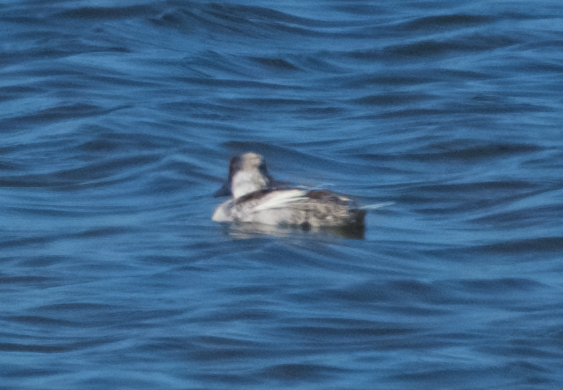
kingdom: Animalia
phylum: Chordata
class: Aves
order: Anseriformes
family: Anatidae
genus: Oxyura
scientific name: Oxyura jamaicensis
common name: Ruddy duck
